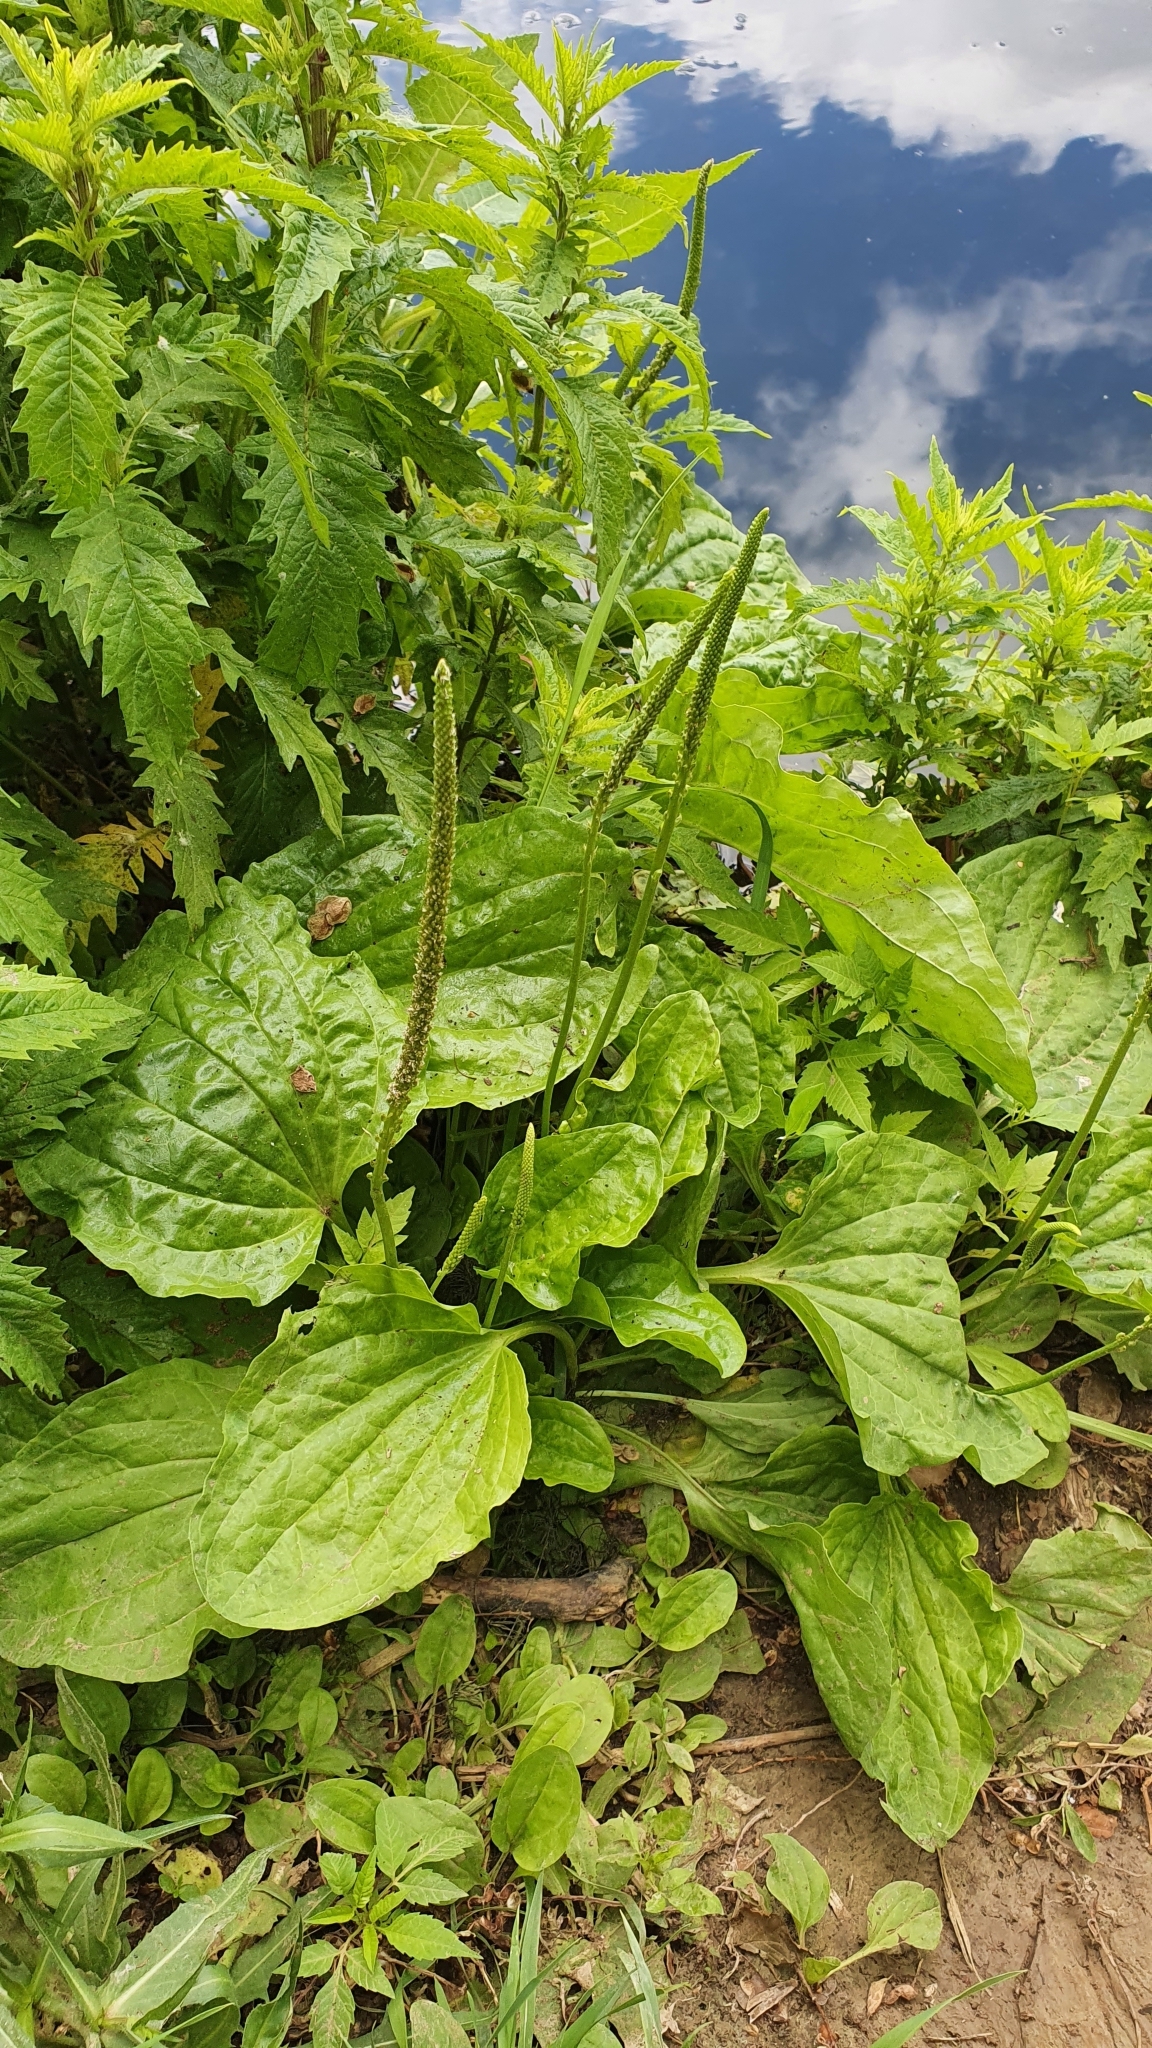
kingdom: Plantae
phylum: Tracheophyta
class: Magnoliopsida
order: Lamiales
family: Plantaginaceae
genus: Plantago
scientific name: Plantago major
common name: Common plantain
